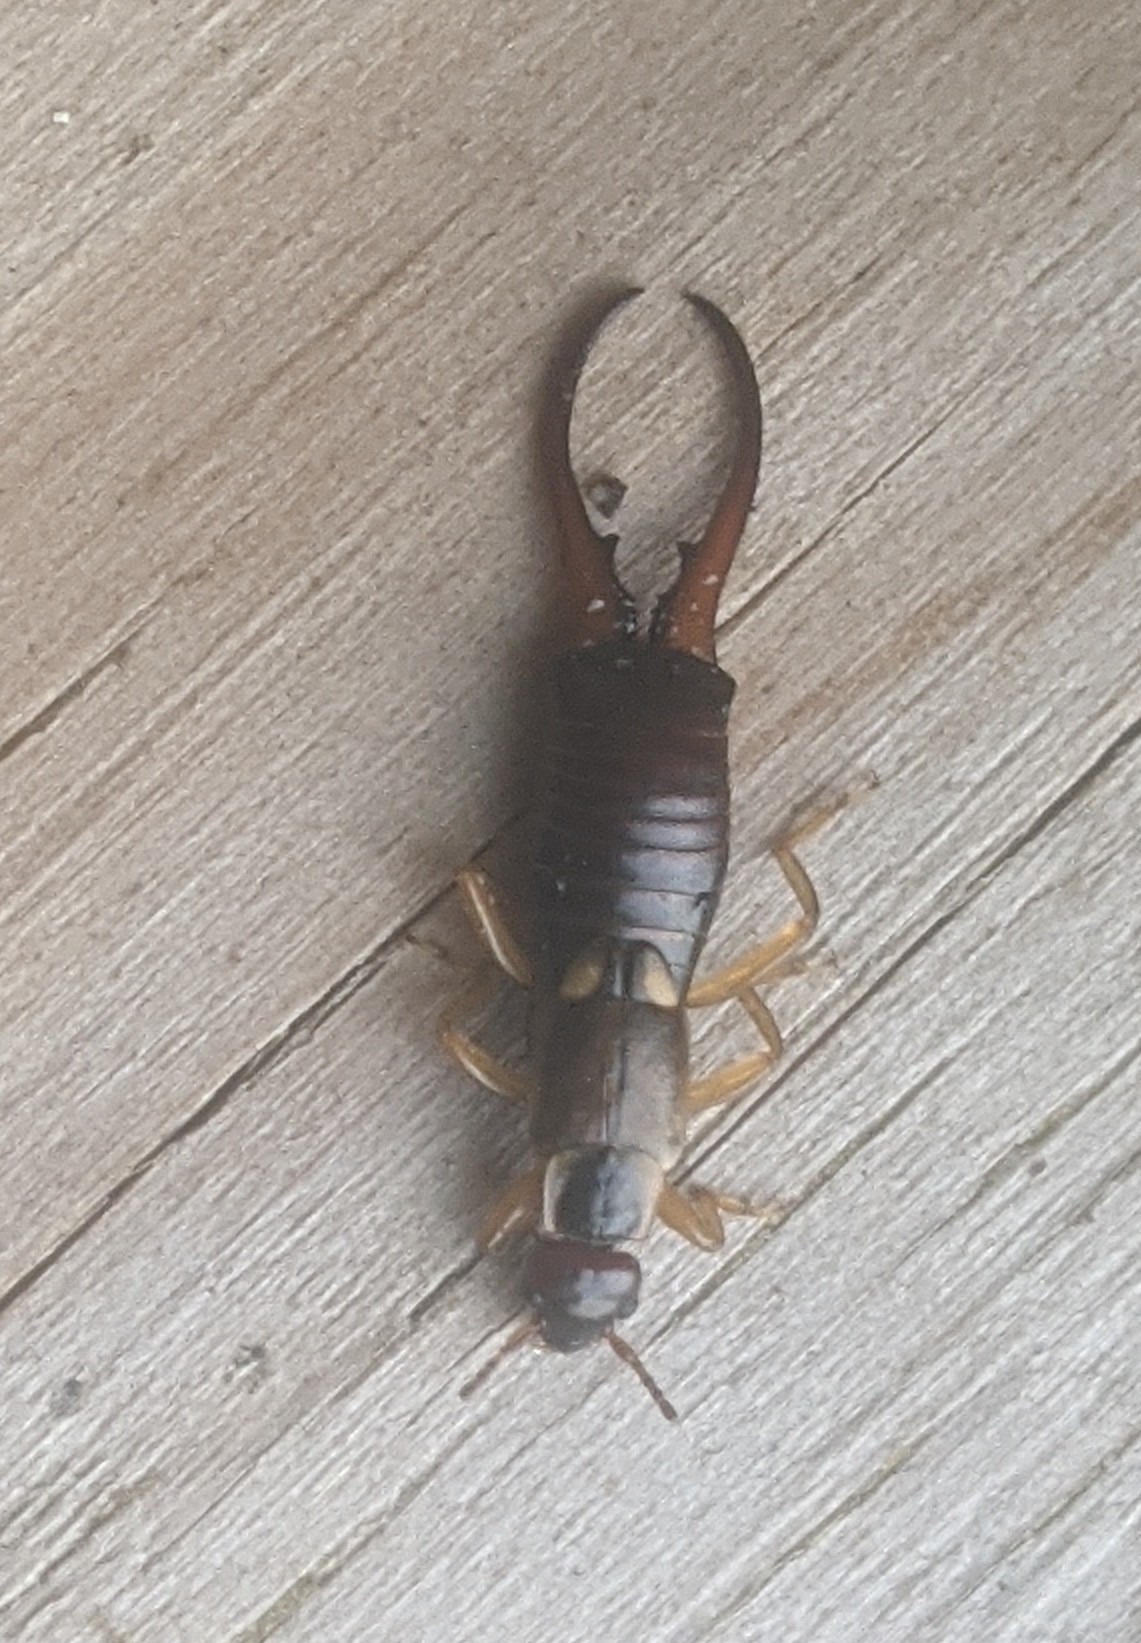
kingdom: Animalia
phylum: Arthropoda
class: Insecta
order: Dermaptera
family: Forficulidae
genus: Forficula
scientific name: Forficula
